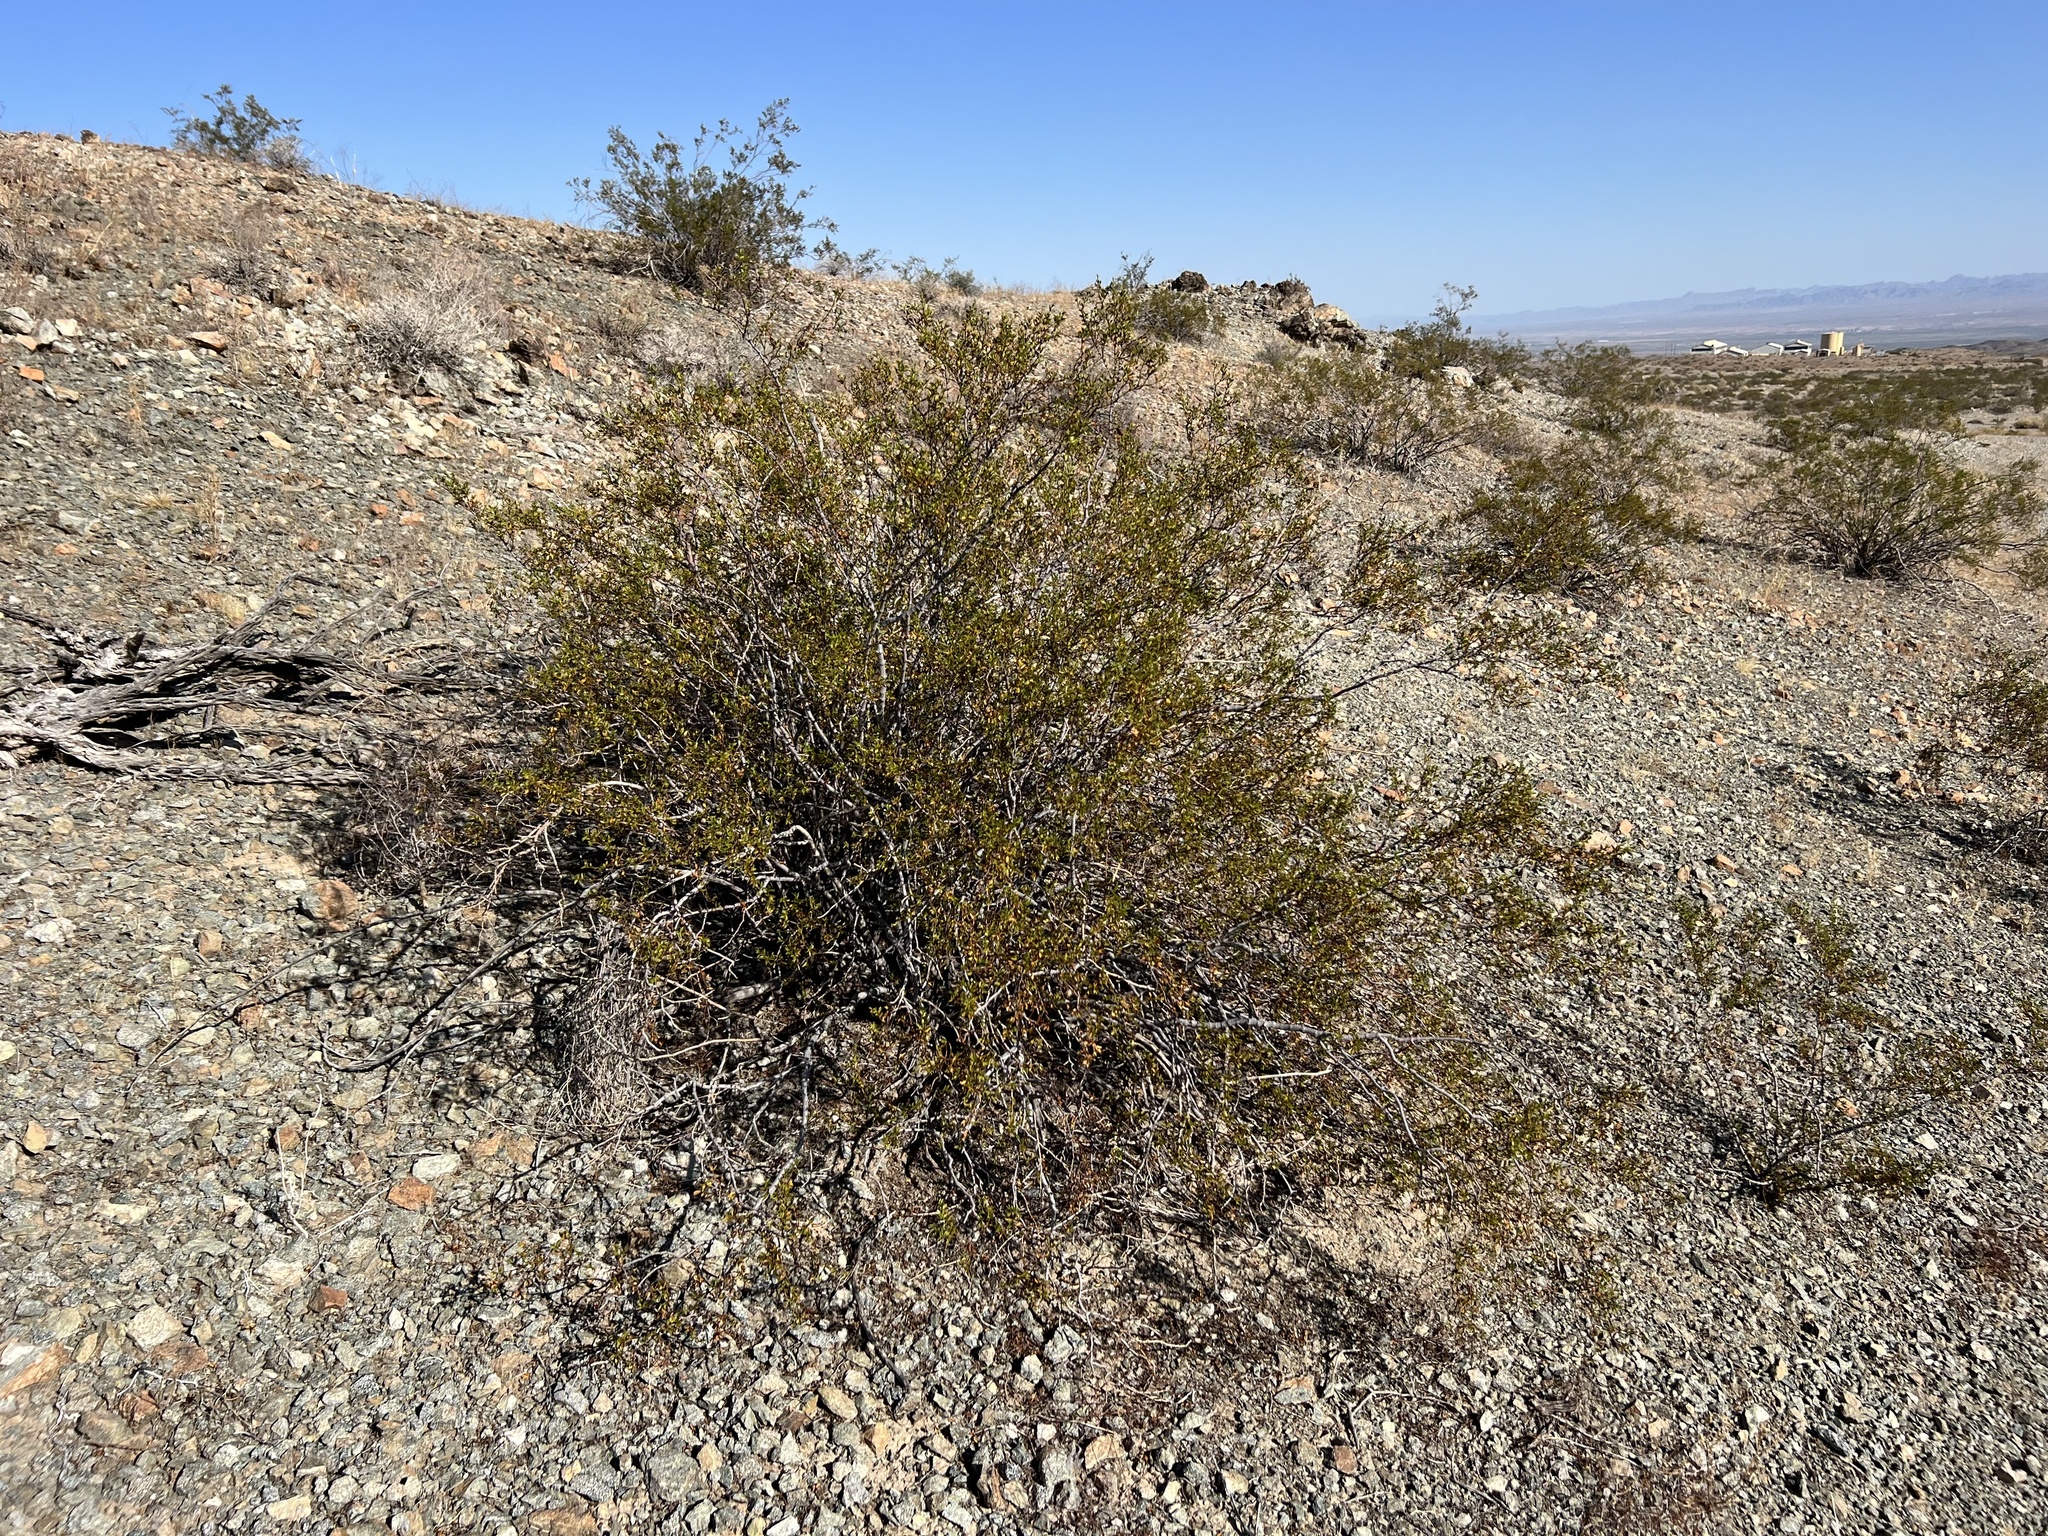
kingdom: Plantae
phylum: Tracheophyta
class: Magnoliopsida
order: Zygophyllales
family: Zygophyllaceae
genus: Larrea
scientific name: Larrea tridentata
